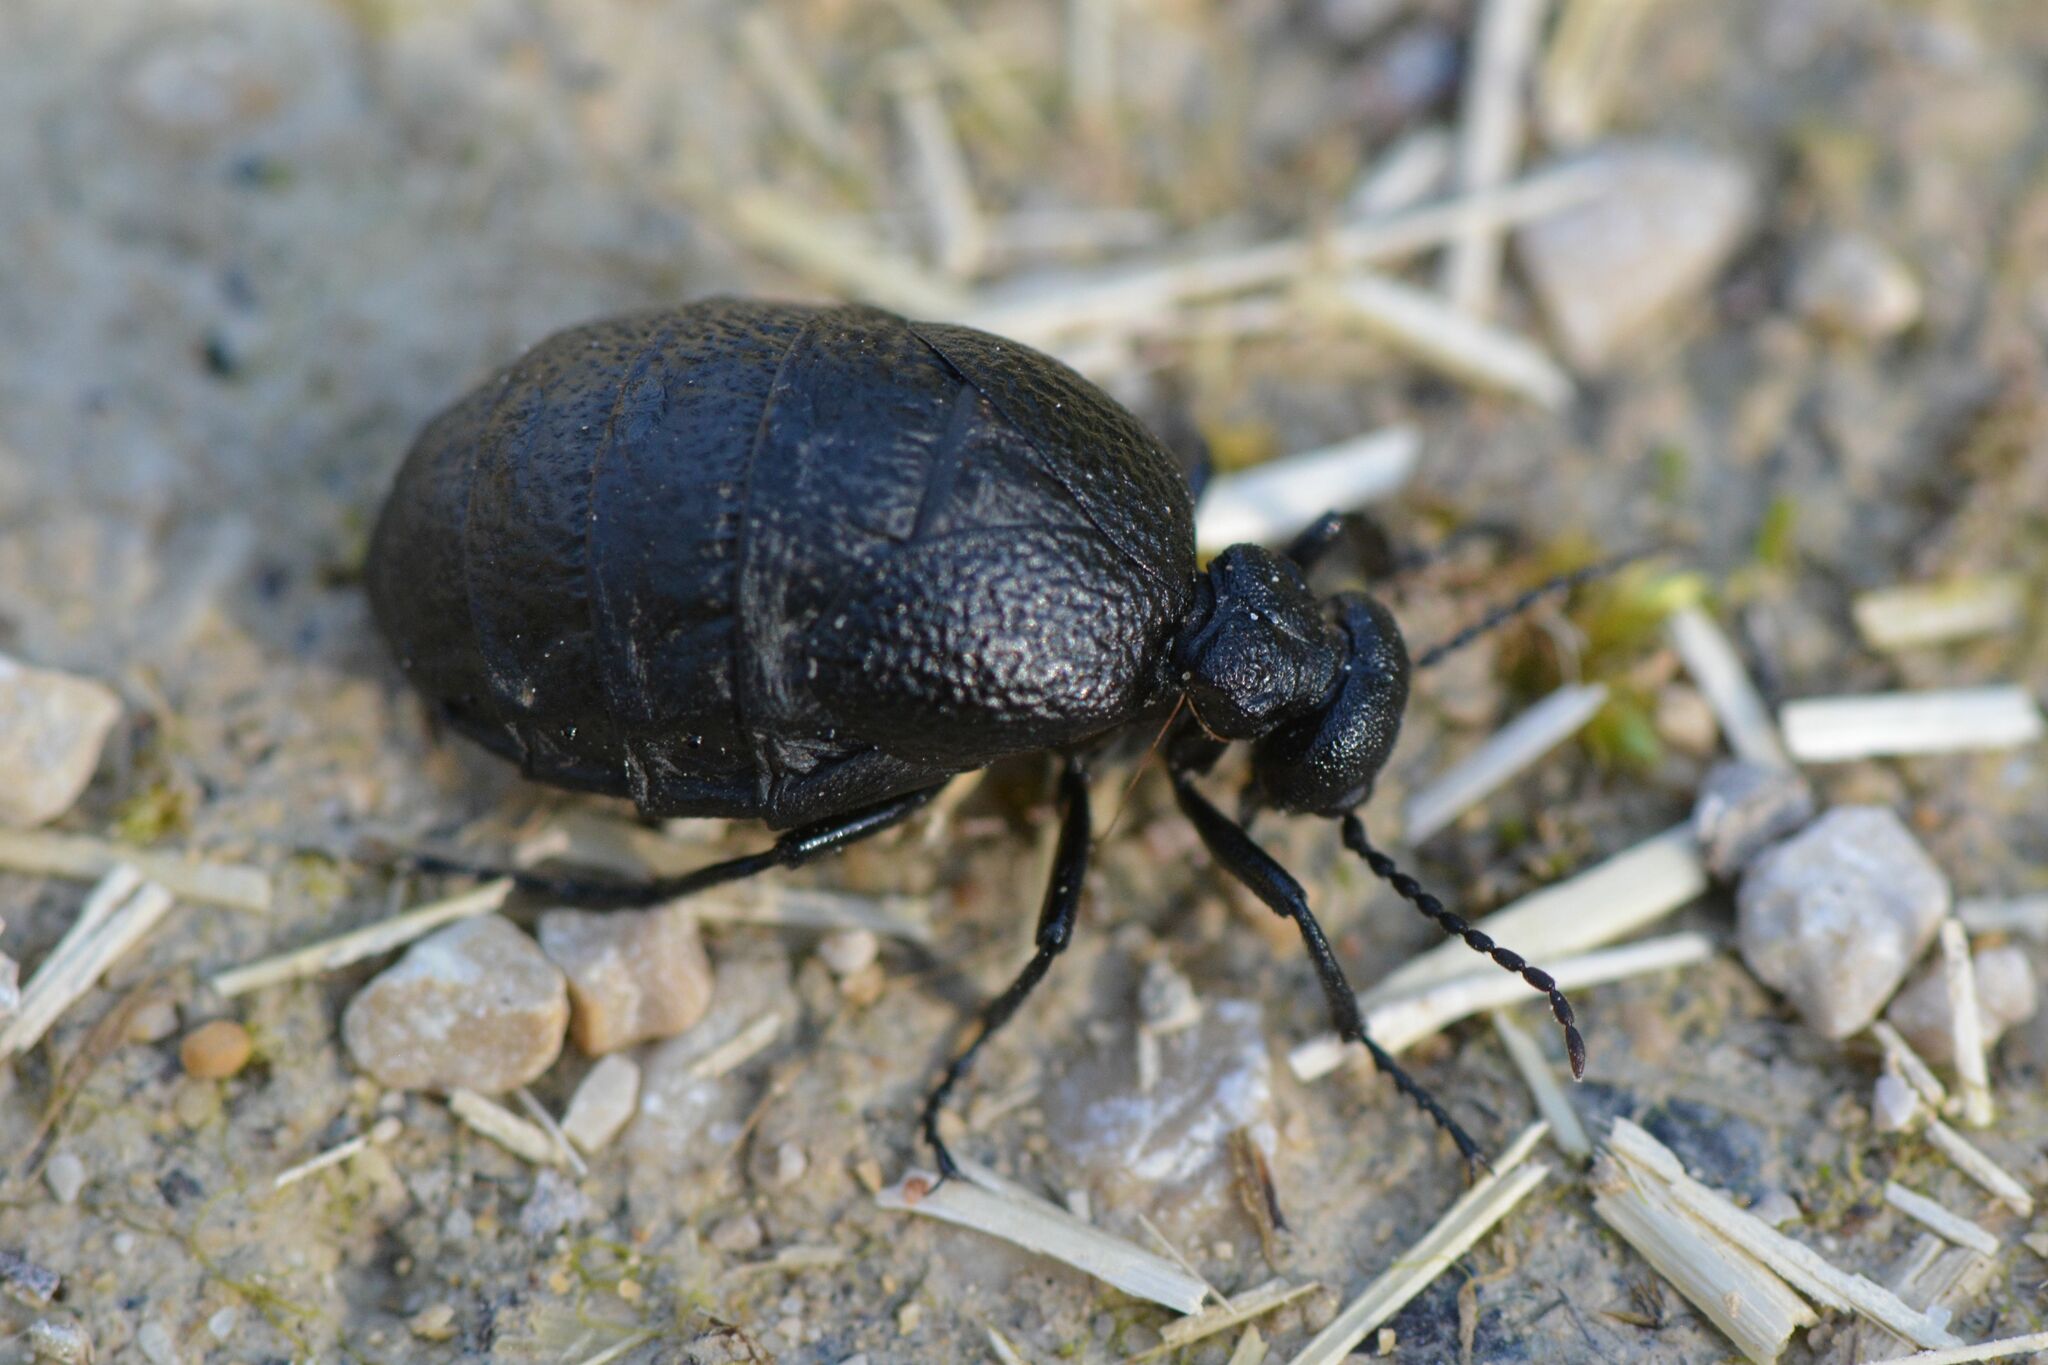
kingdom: Animalia
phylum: Arthropoda
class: Insecta
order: Coleoptera
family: Meloidae
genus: Meloe
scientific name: Meloe rugosus
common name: Rugged oil-beetle
